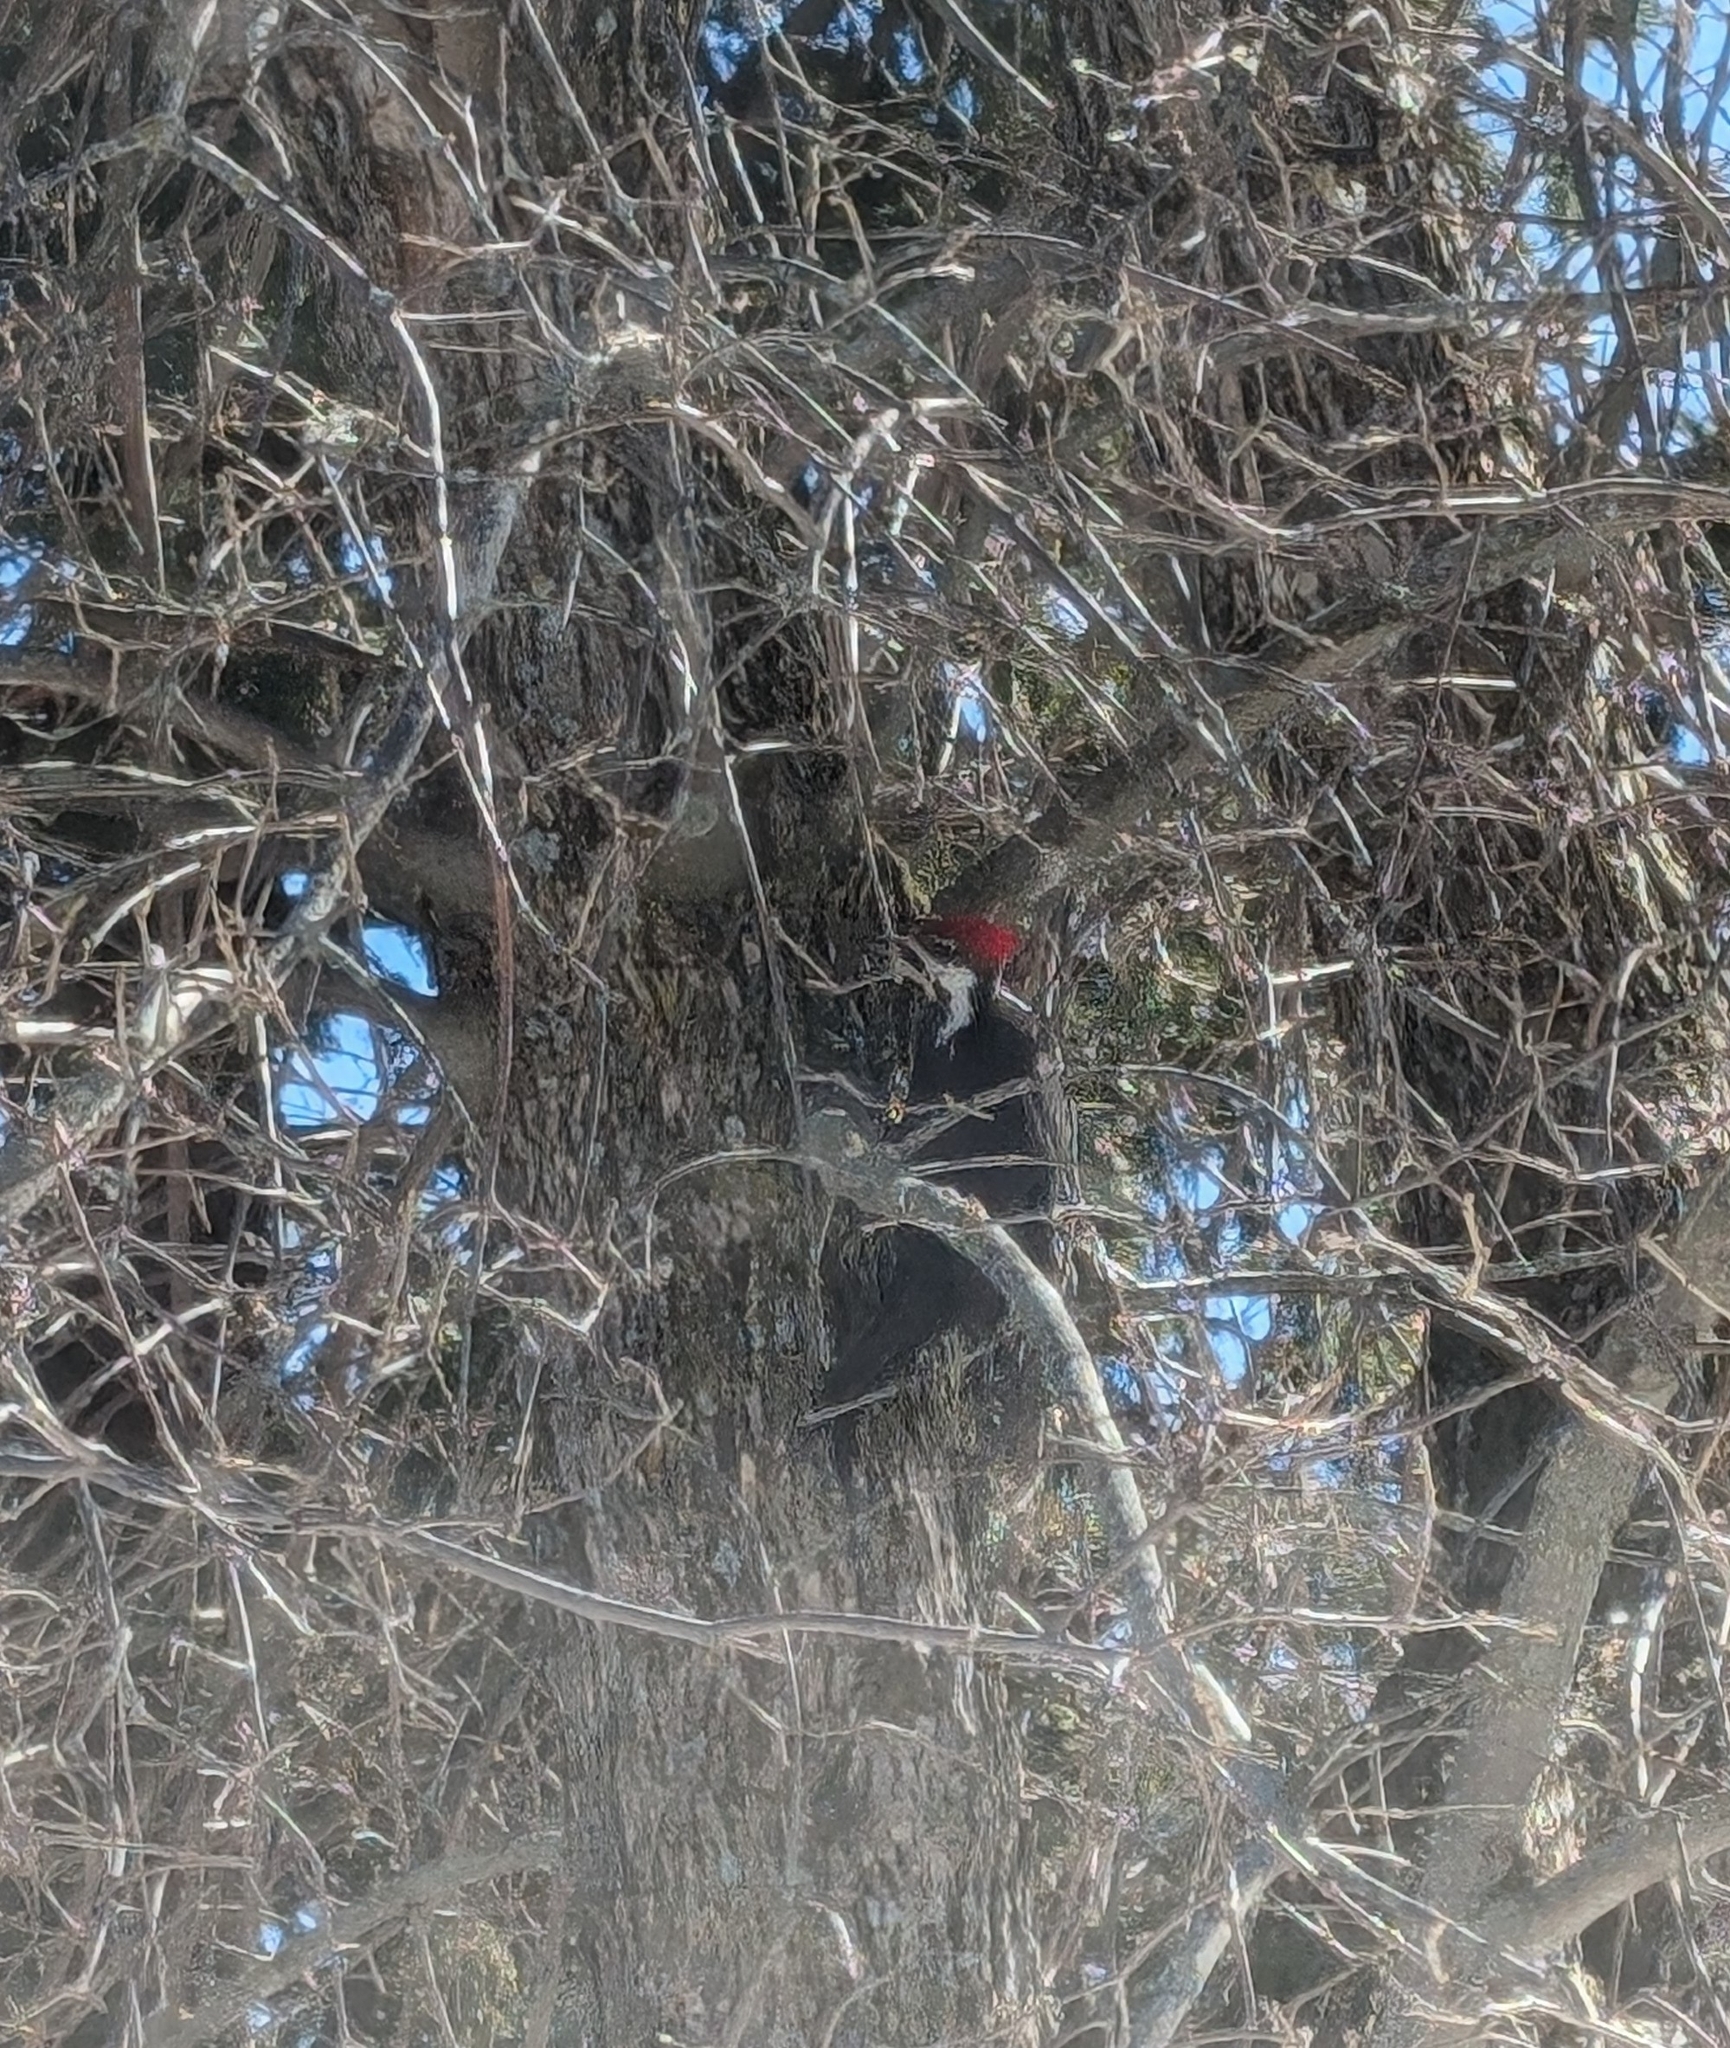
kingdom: Animalia
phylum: Chordata
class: Aves
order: Piciformes
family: Picidae
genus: Dryocopus
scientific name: Dryocopus pileatus
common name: Pileated woodpecker
